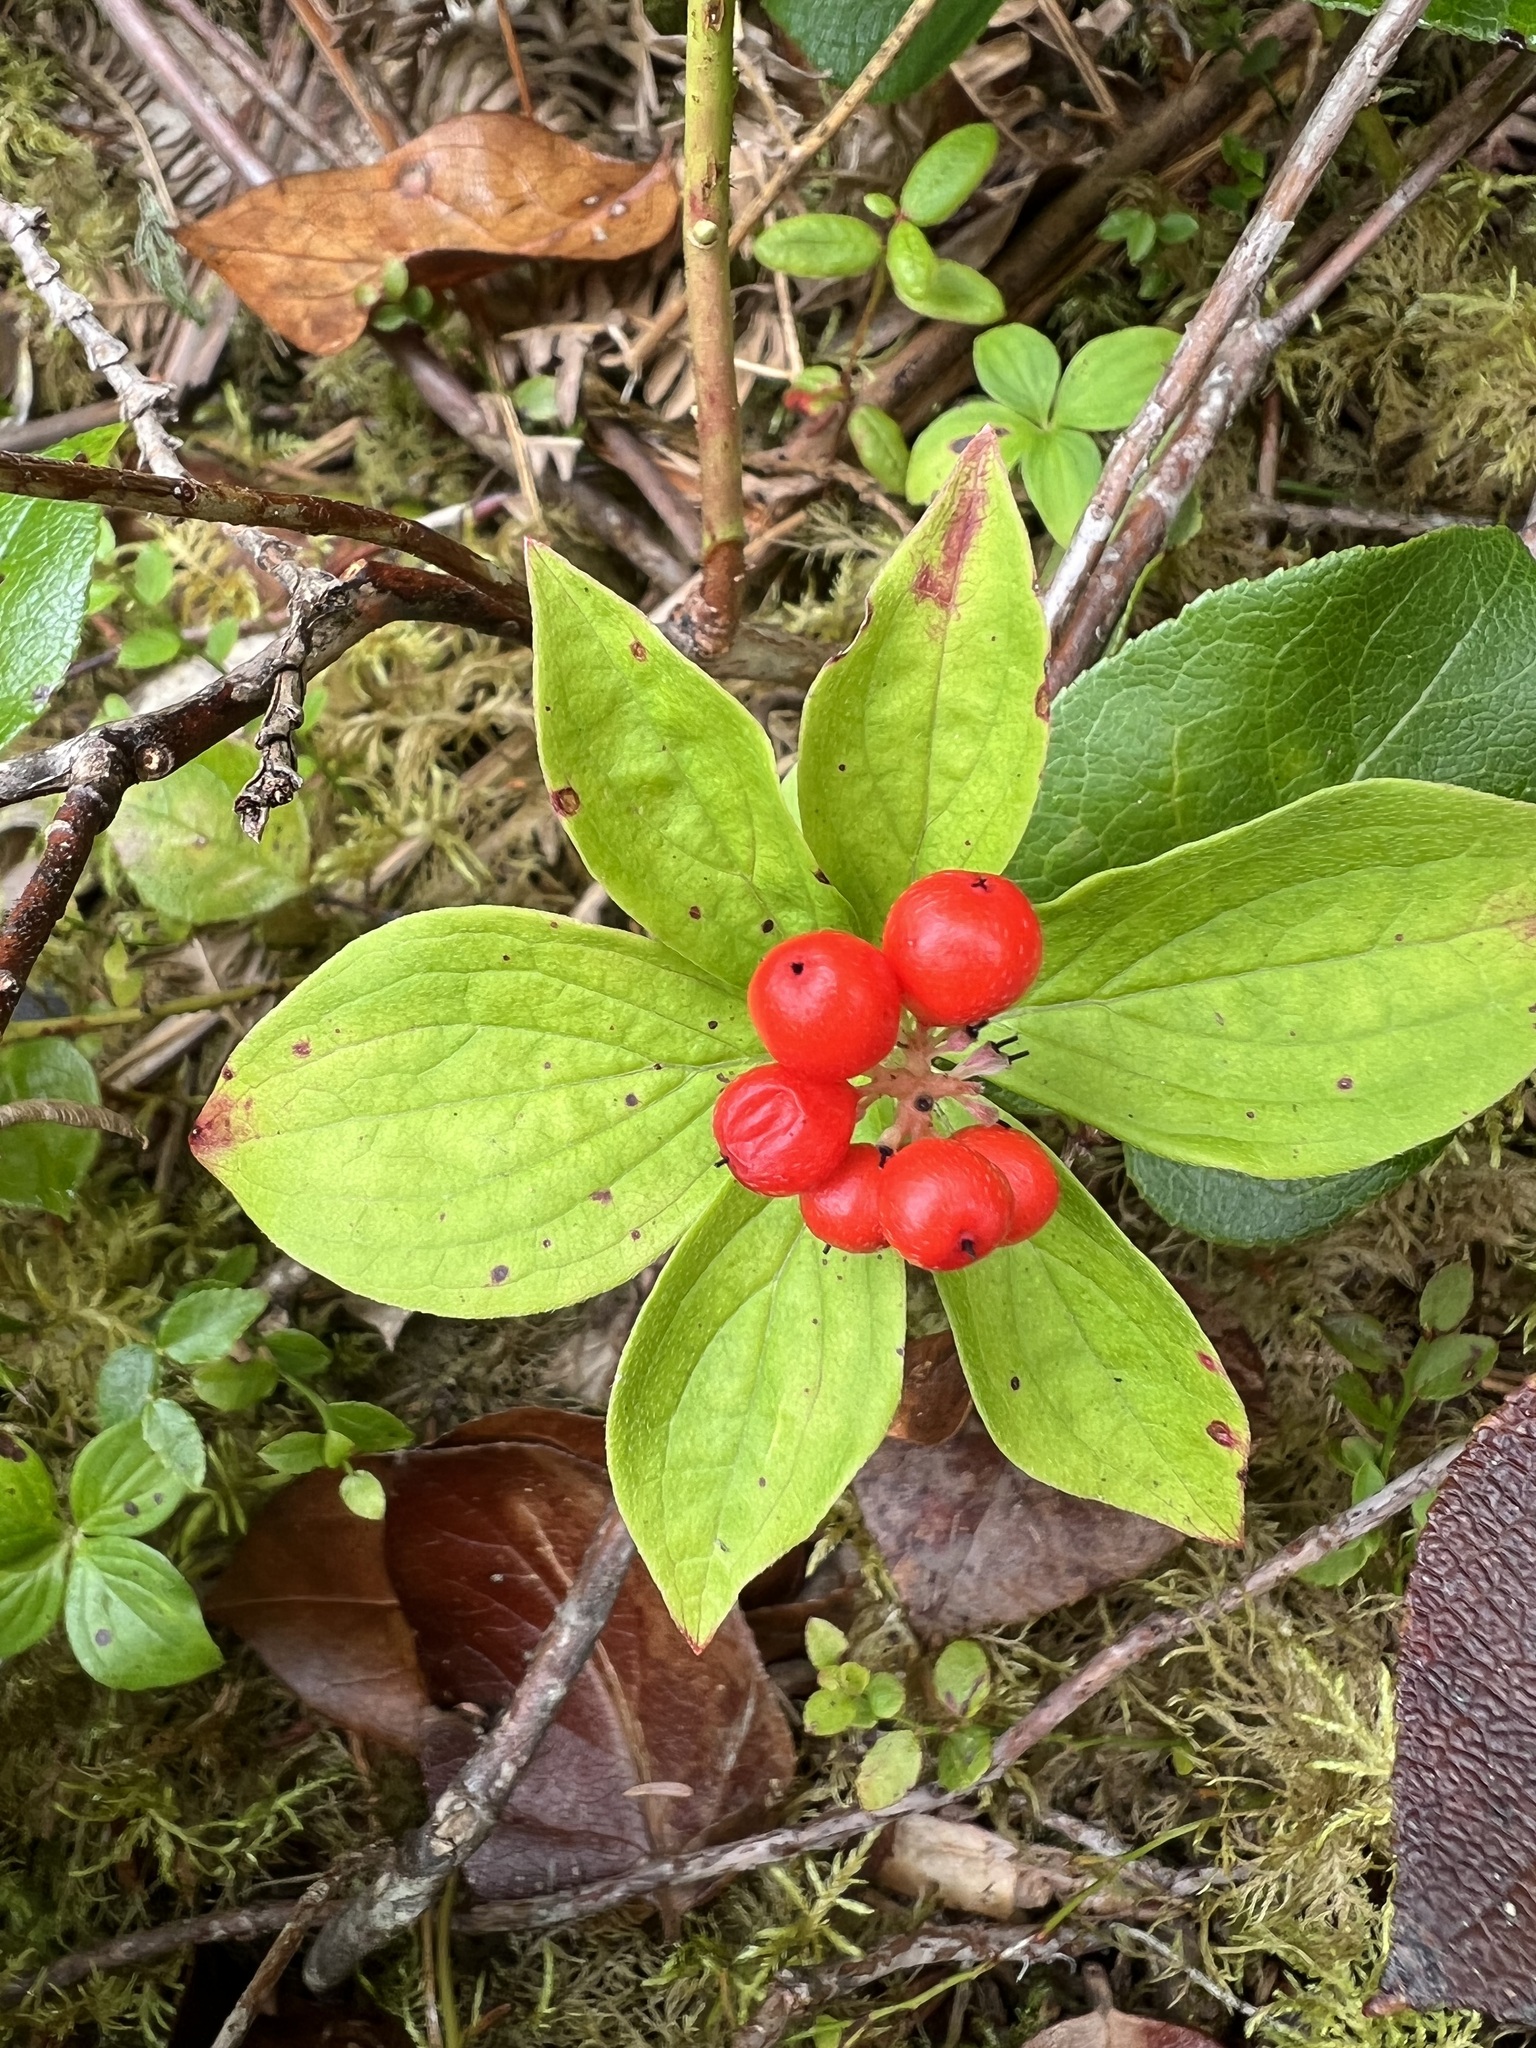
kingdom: Plantae
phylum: Tracheophyta
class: Magnoliopsida
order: Cornales
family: Cornaceae
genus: Cornus
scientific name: Cornus unalaschkensis
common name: Alaska bunchberry
